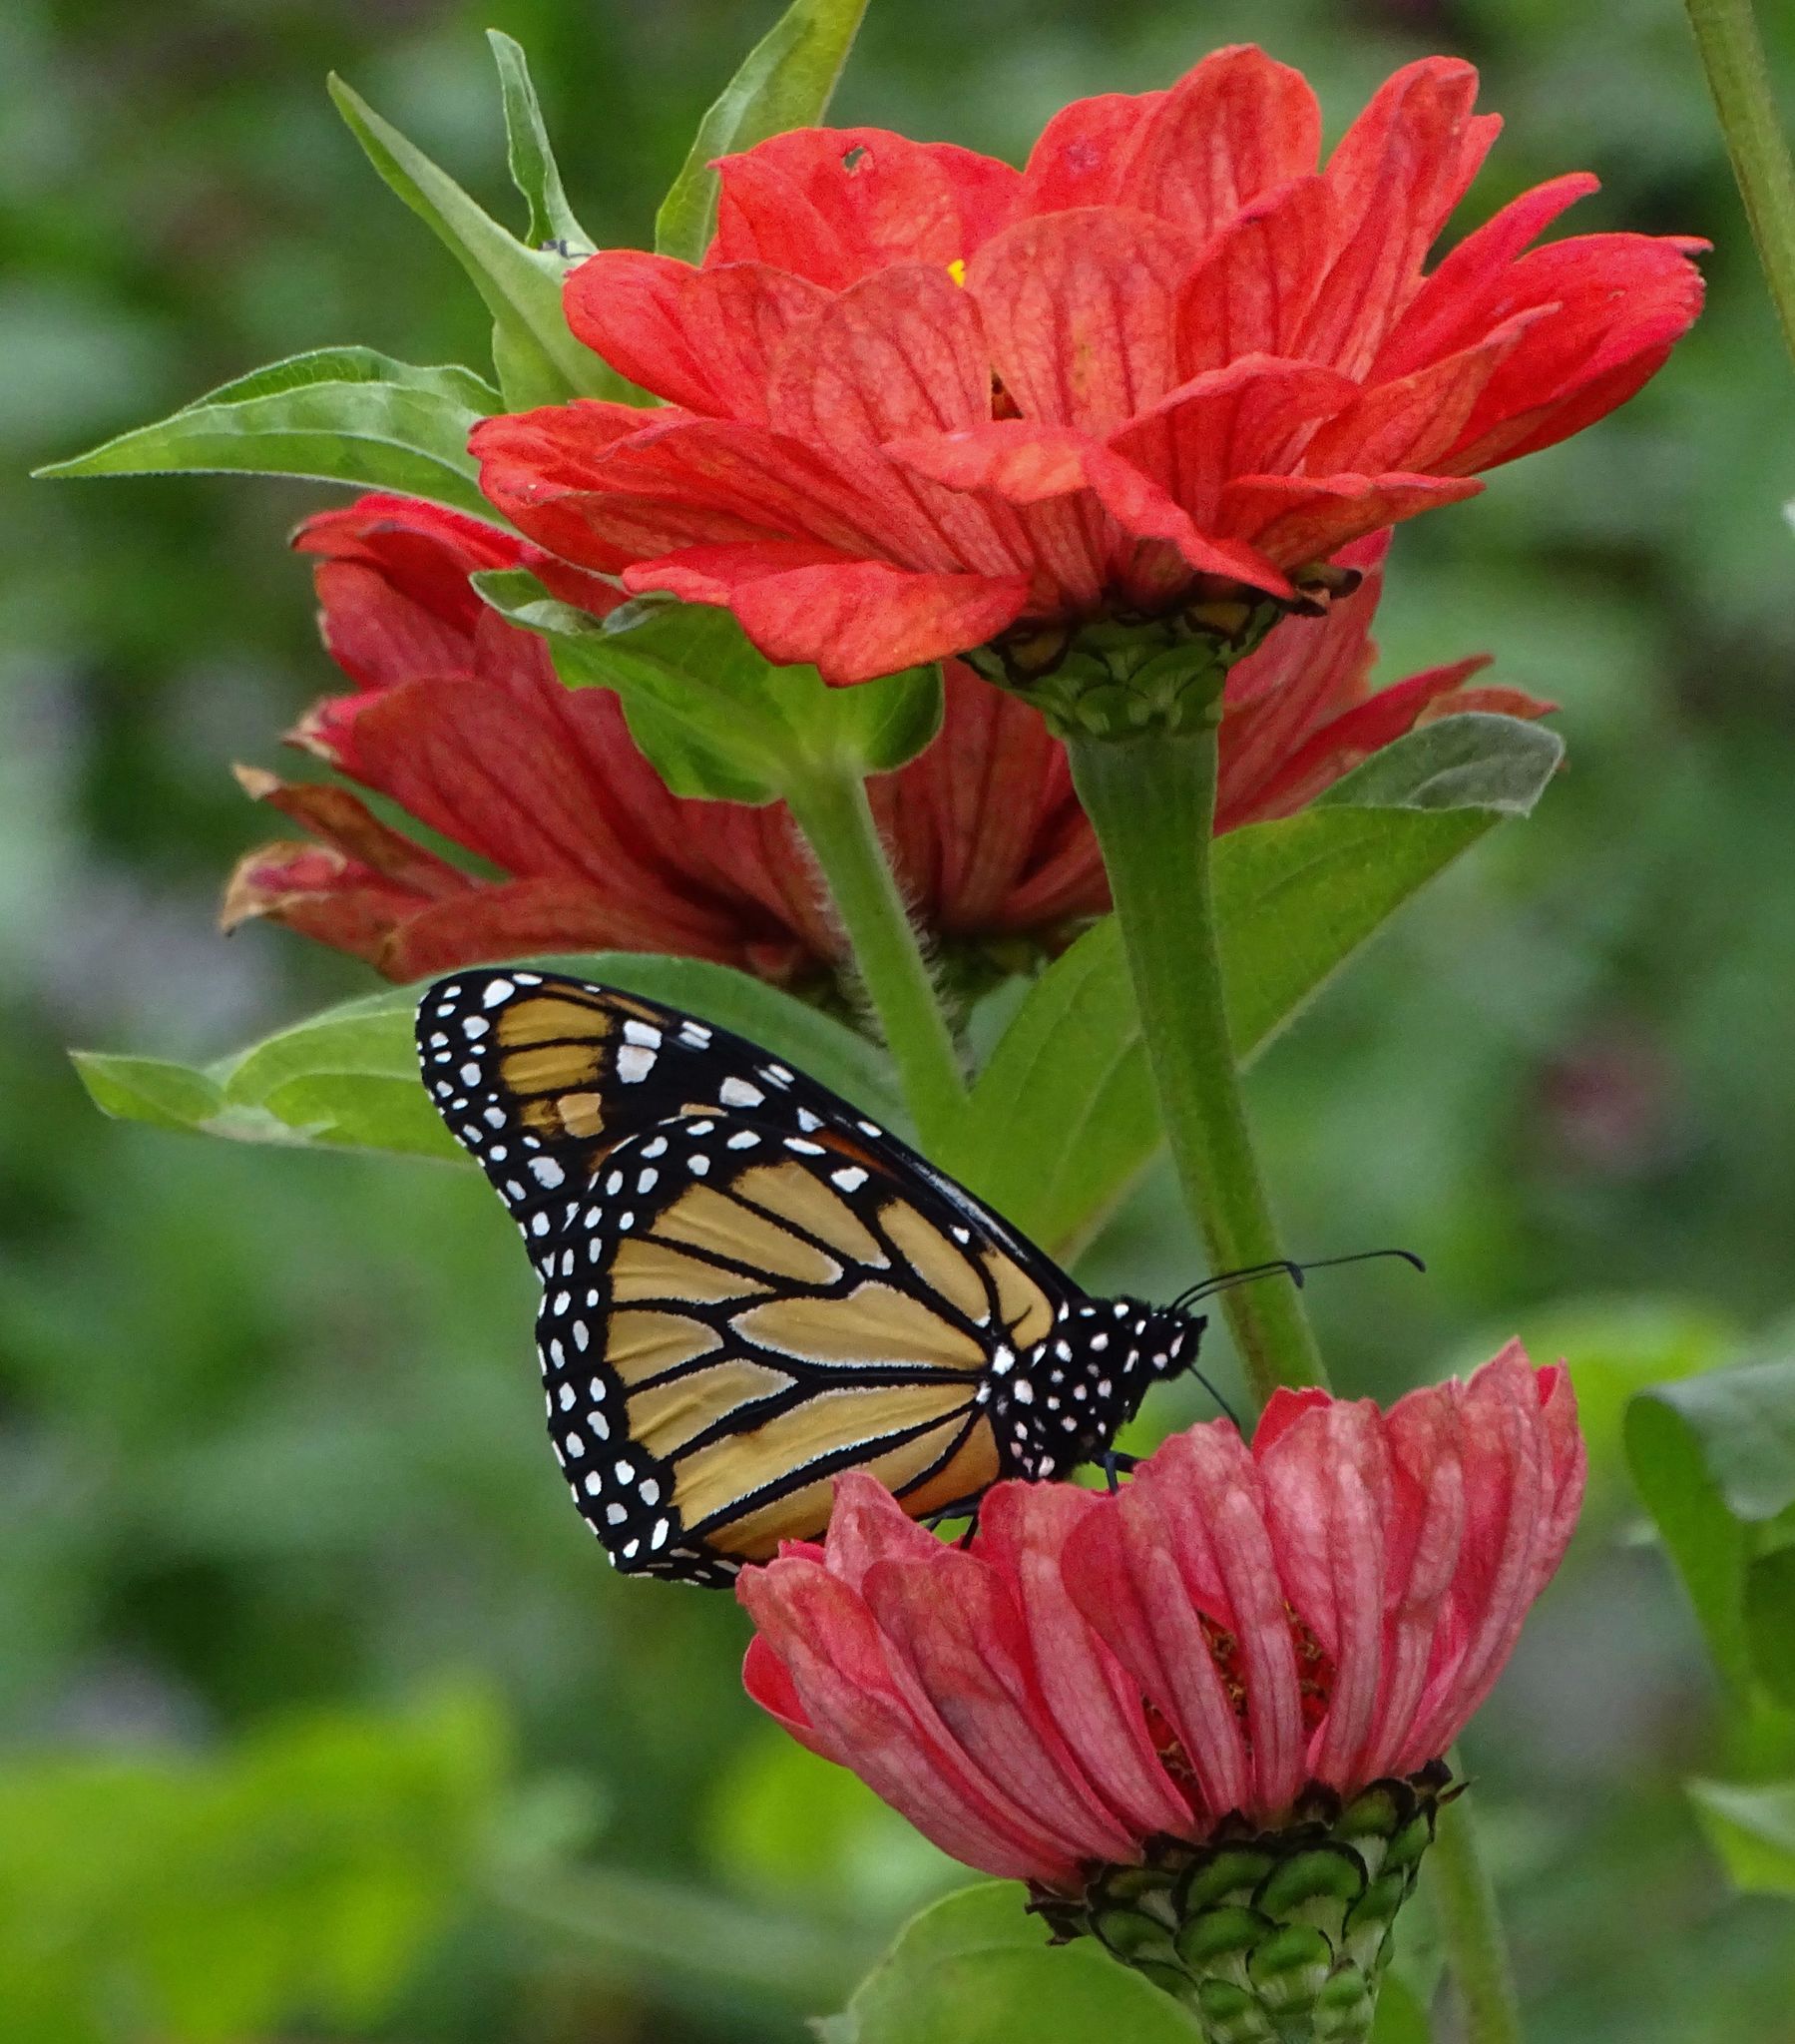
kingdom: Animalia
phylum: Arthropoda
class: Insecta
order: Lepidoptera
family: Nymphalidae
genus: Danaus
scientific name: Danaus plexippus
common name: Monarch
